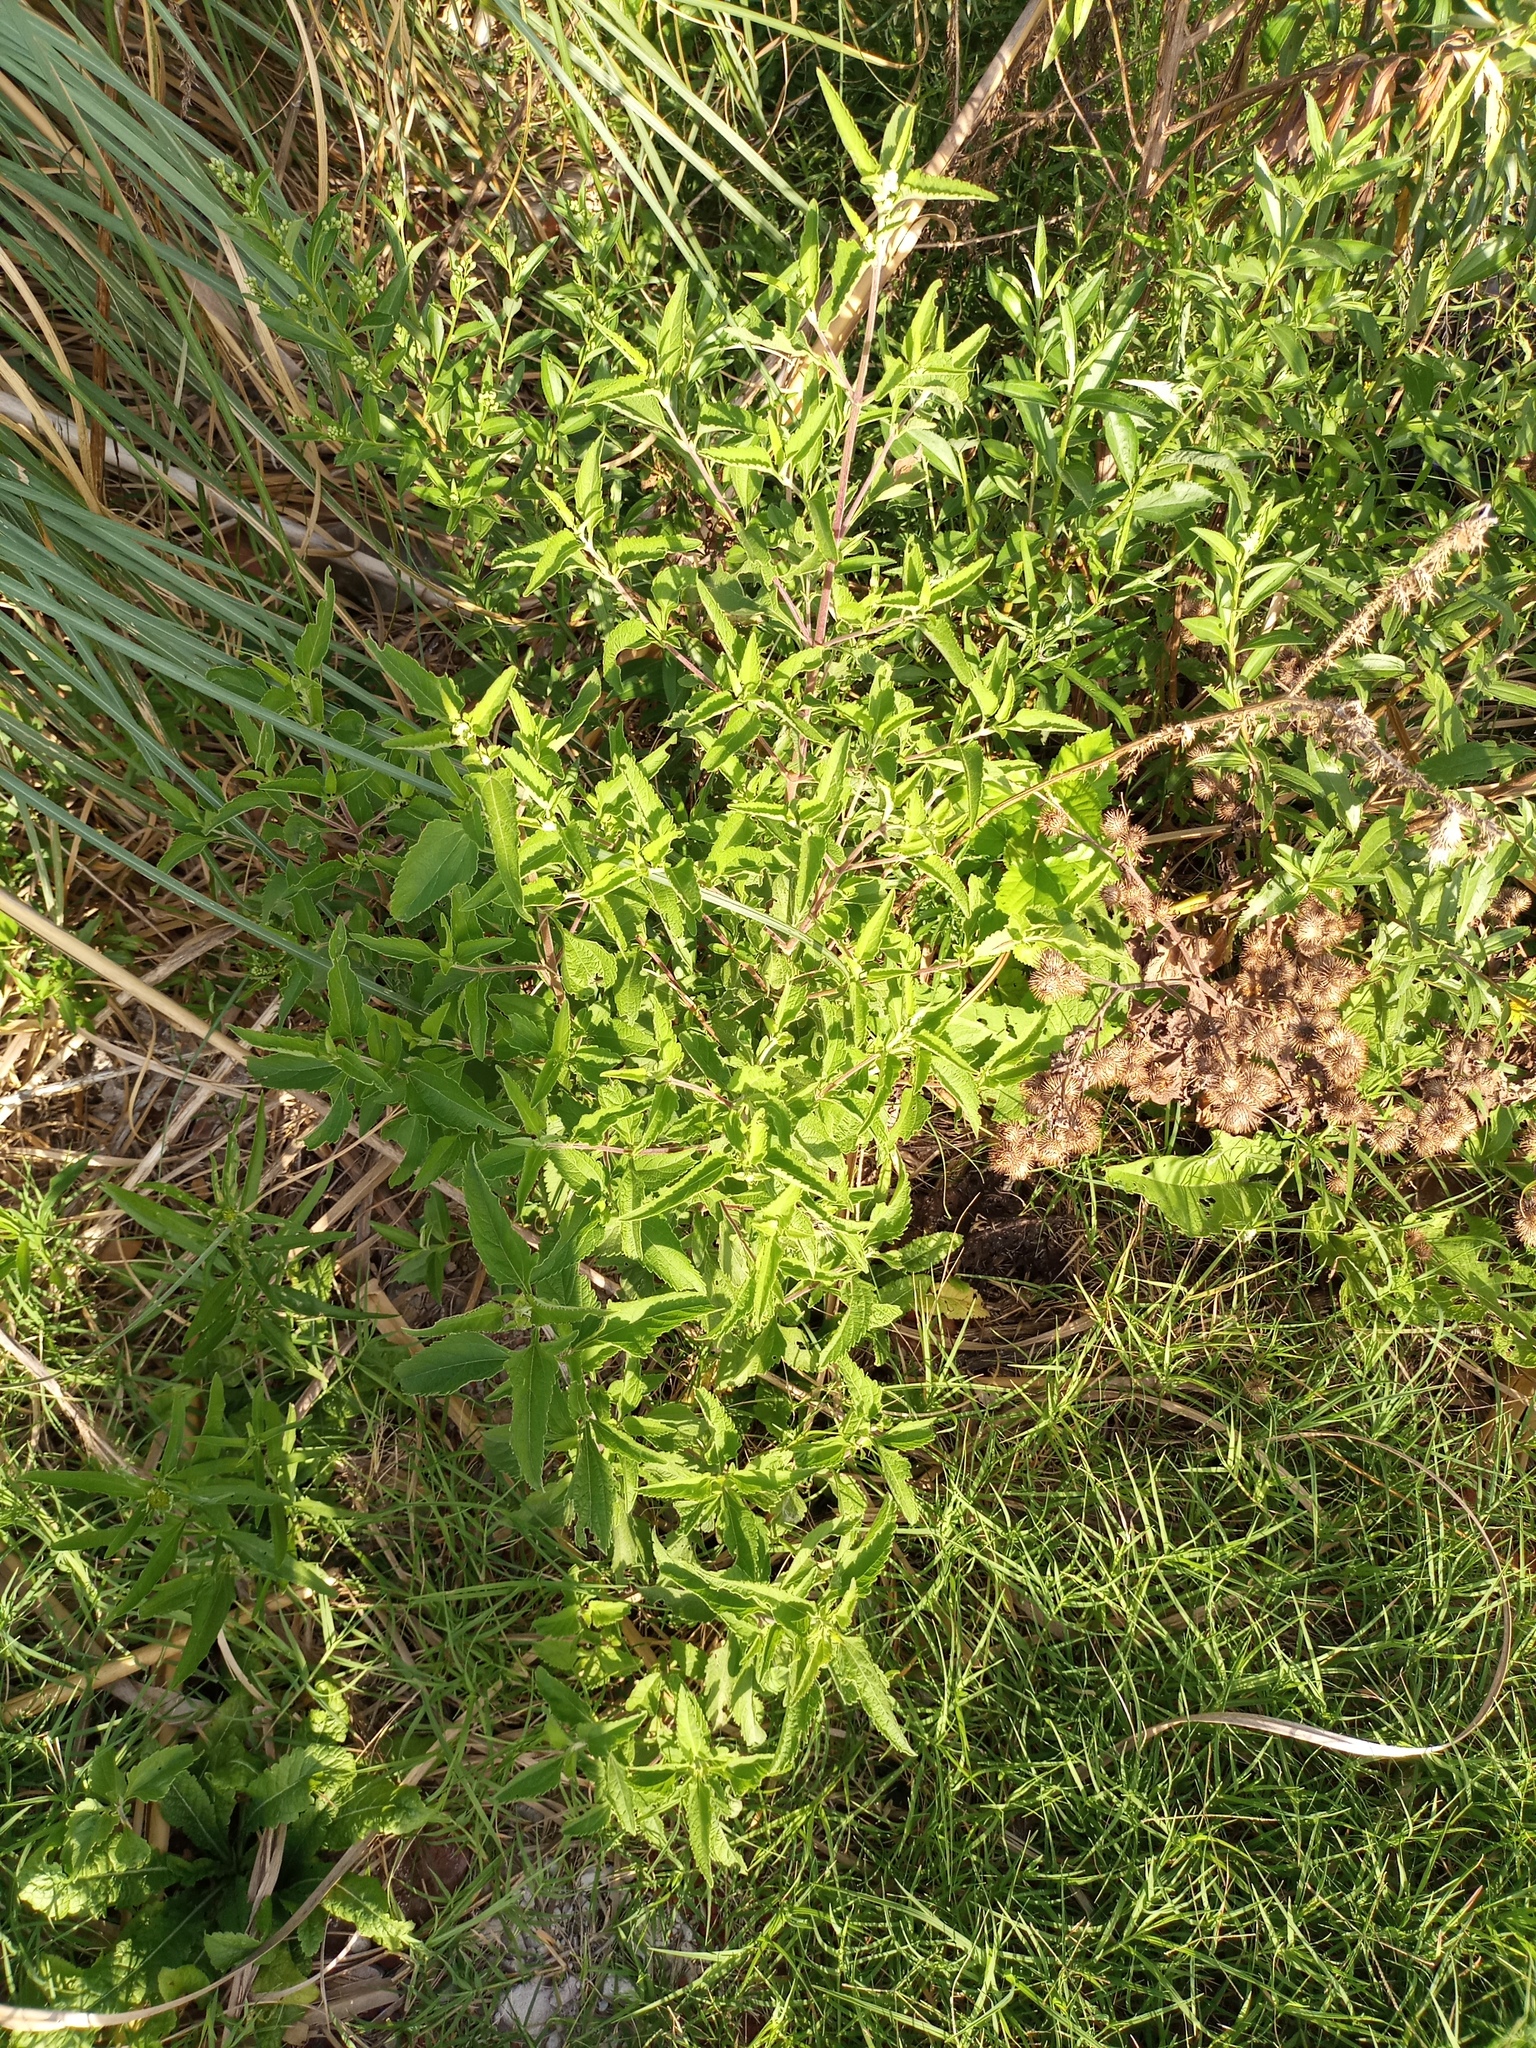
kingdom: Plantae
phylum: Tracheophyta
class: Magnoliopsida
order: Asterales
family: Asteraceae
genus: Austroeupatorium
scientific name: Austroeupatorium inulifolium
